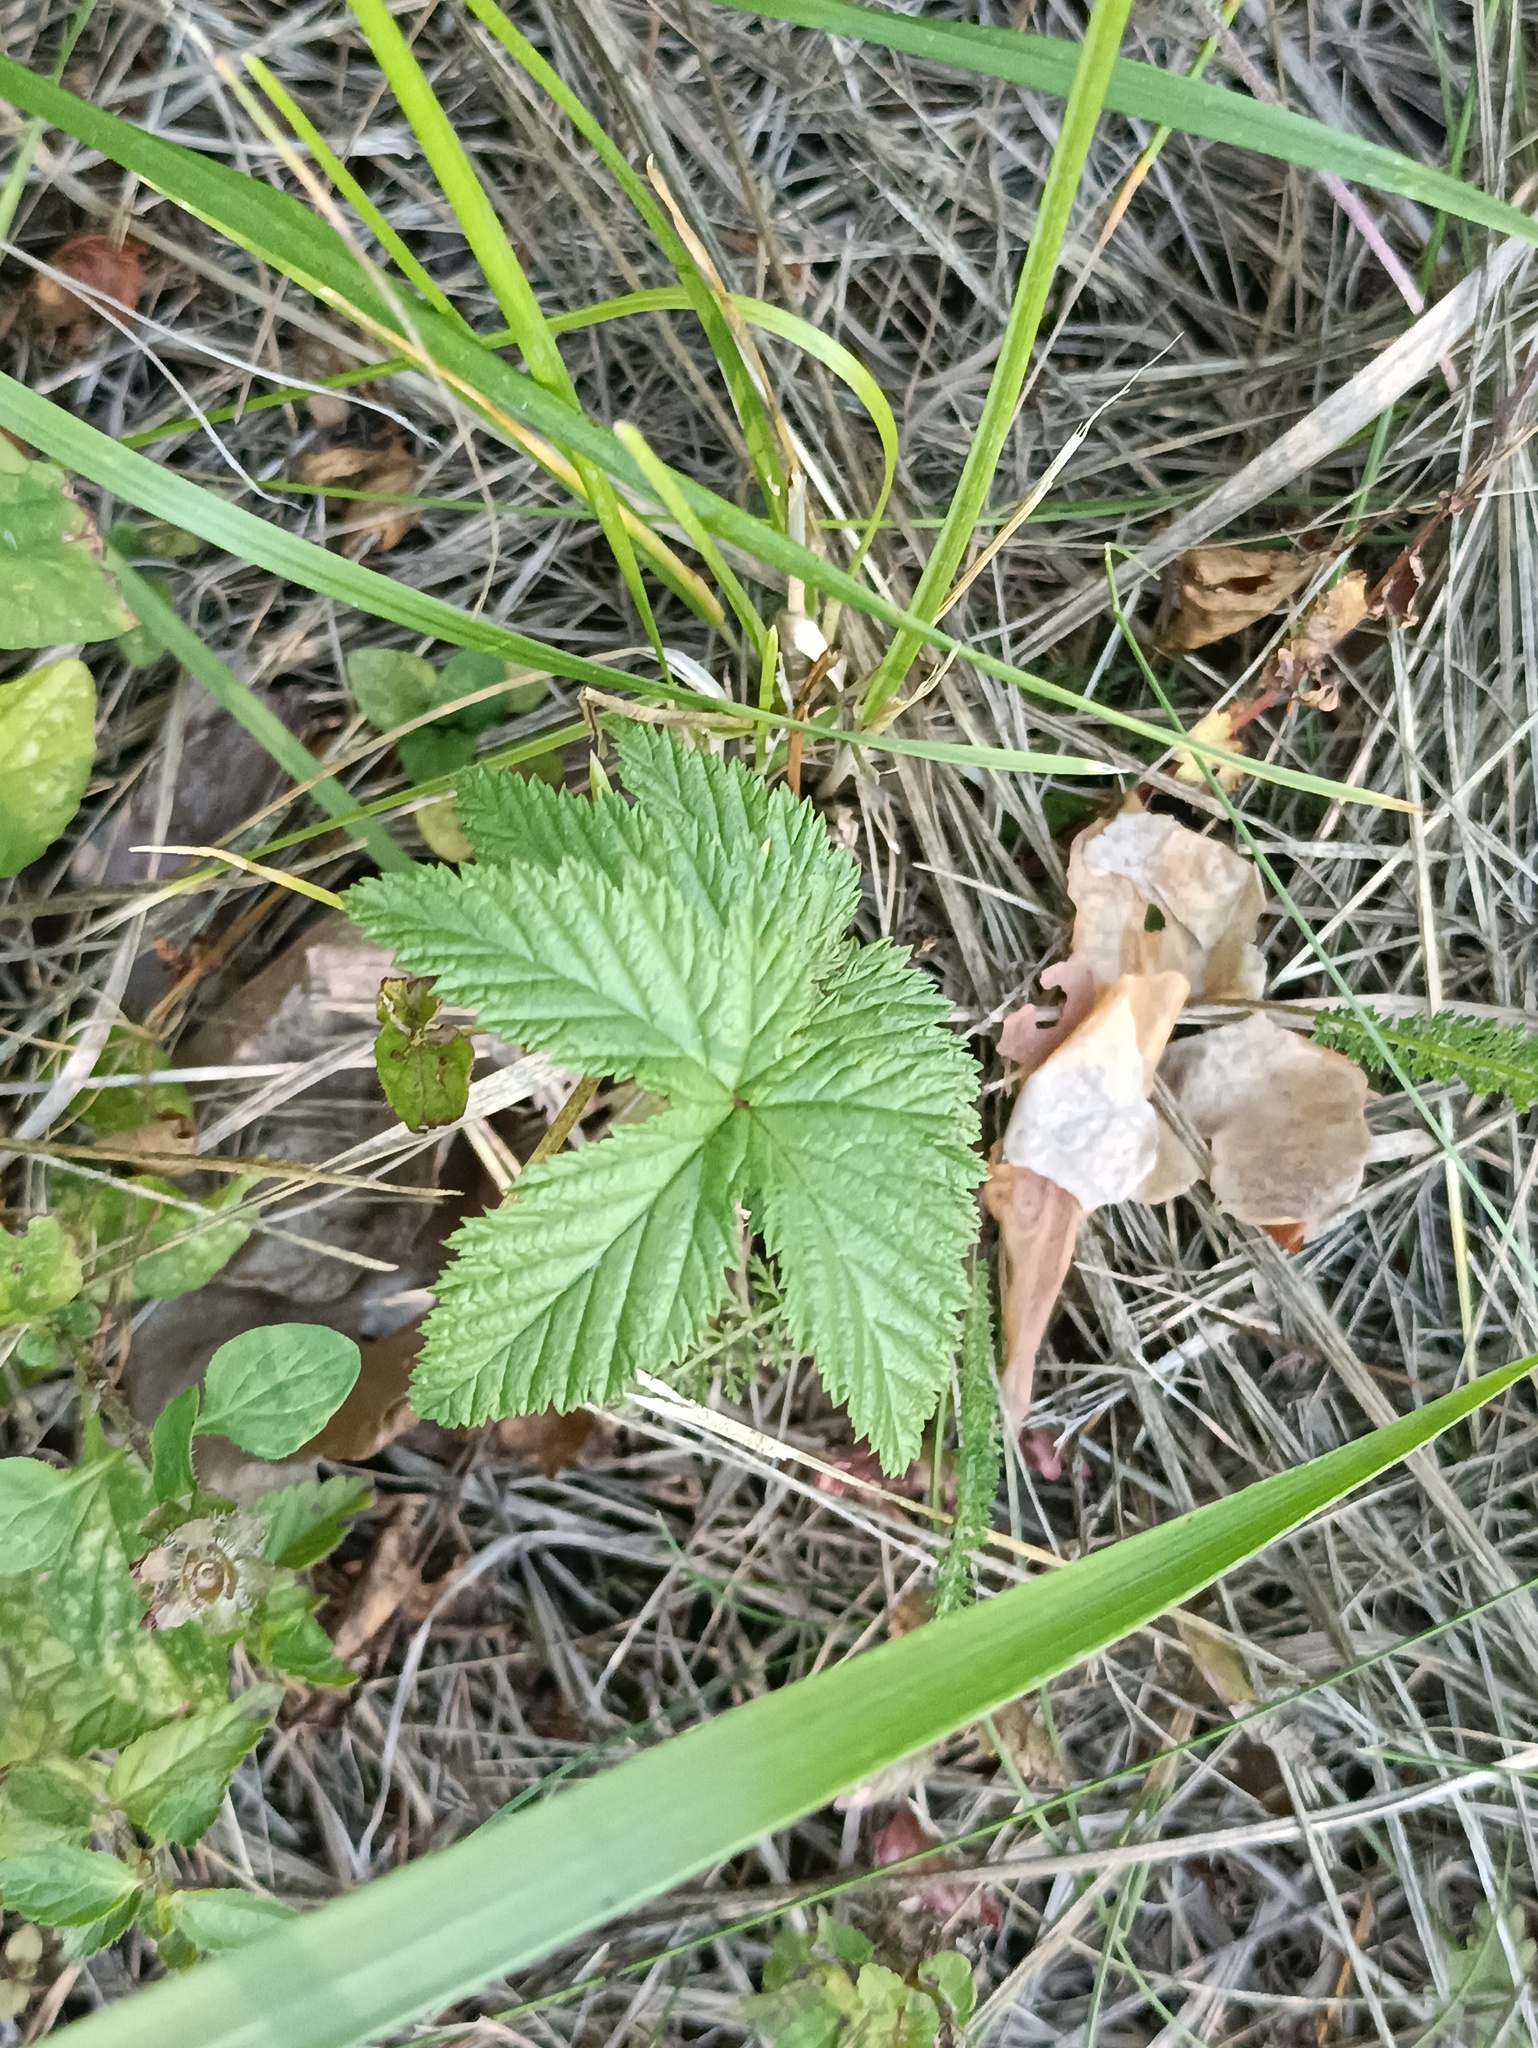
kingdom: Plantae
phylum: Tracheophyta
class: Magnoliopsida
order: Rosales
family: Rosaceae
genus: Filipendula
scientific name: Filipendula ulmaria
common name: Meadowsweet
